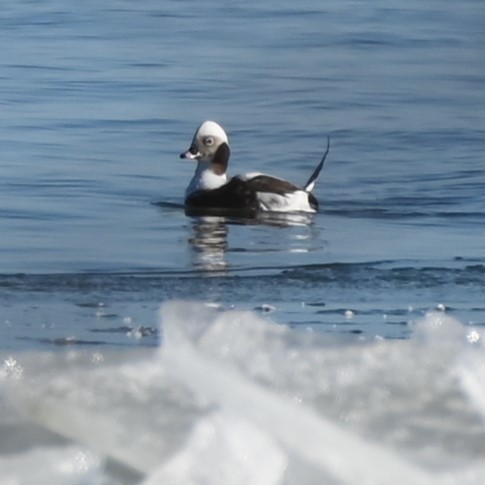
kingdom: Animalia
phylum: Chordata
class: Aves
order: Anseriformes
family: Anatidae
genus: Clangula
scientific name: Clangula hyemalis
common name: Long-tailed duck
